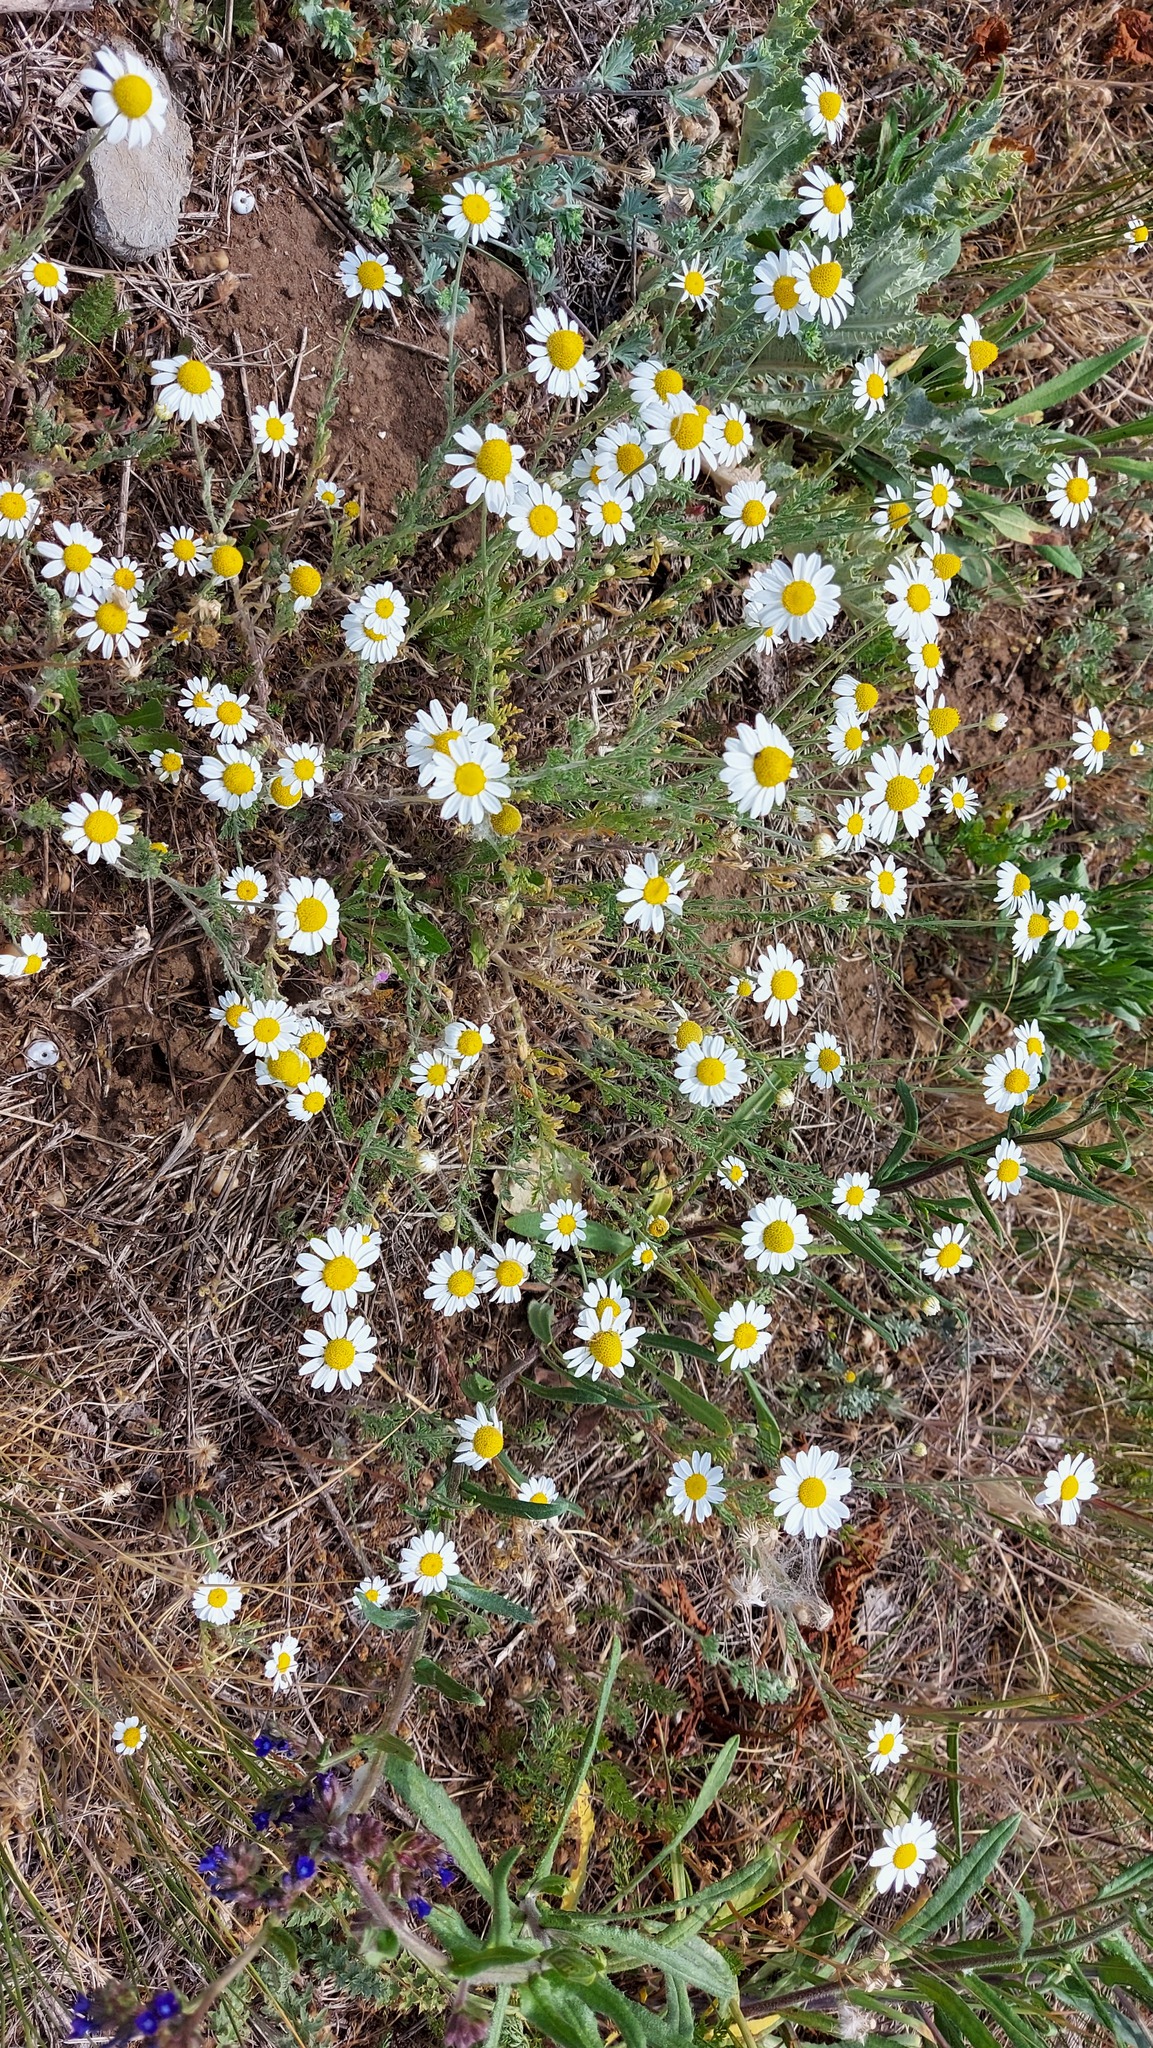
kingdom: Plantae
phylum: Tracheophyta
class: Magnoliopsida
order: Asterales
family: Asteraceae
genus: Anthemis
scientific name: Anthemis cotula
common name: Stinking chamomile
